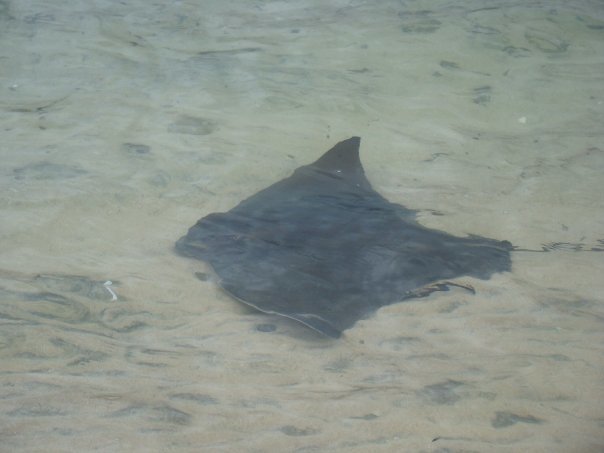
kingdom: Animalia
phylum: Chordata
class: Elasmobranchii
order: Myliobatiformes
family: Myliobatidae
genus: Myliobatis
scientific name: Myliobatis tenuicaudatus
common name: Eagle ray
